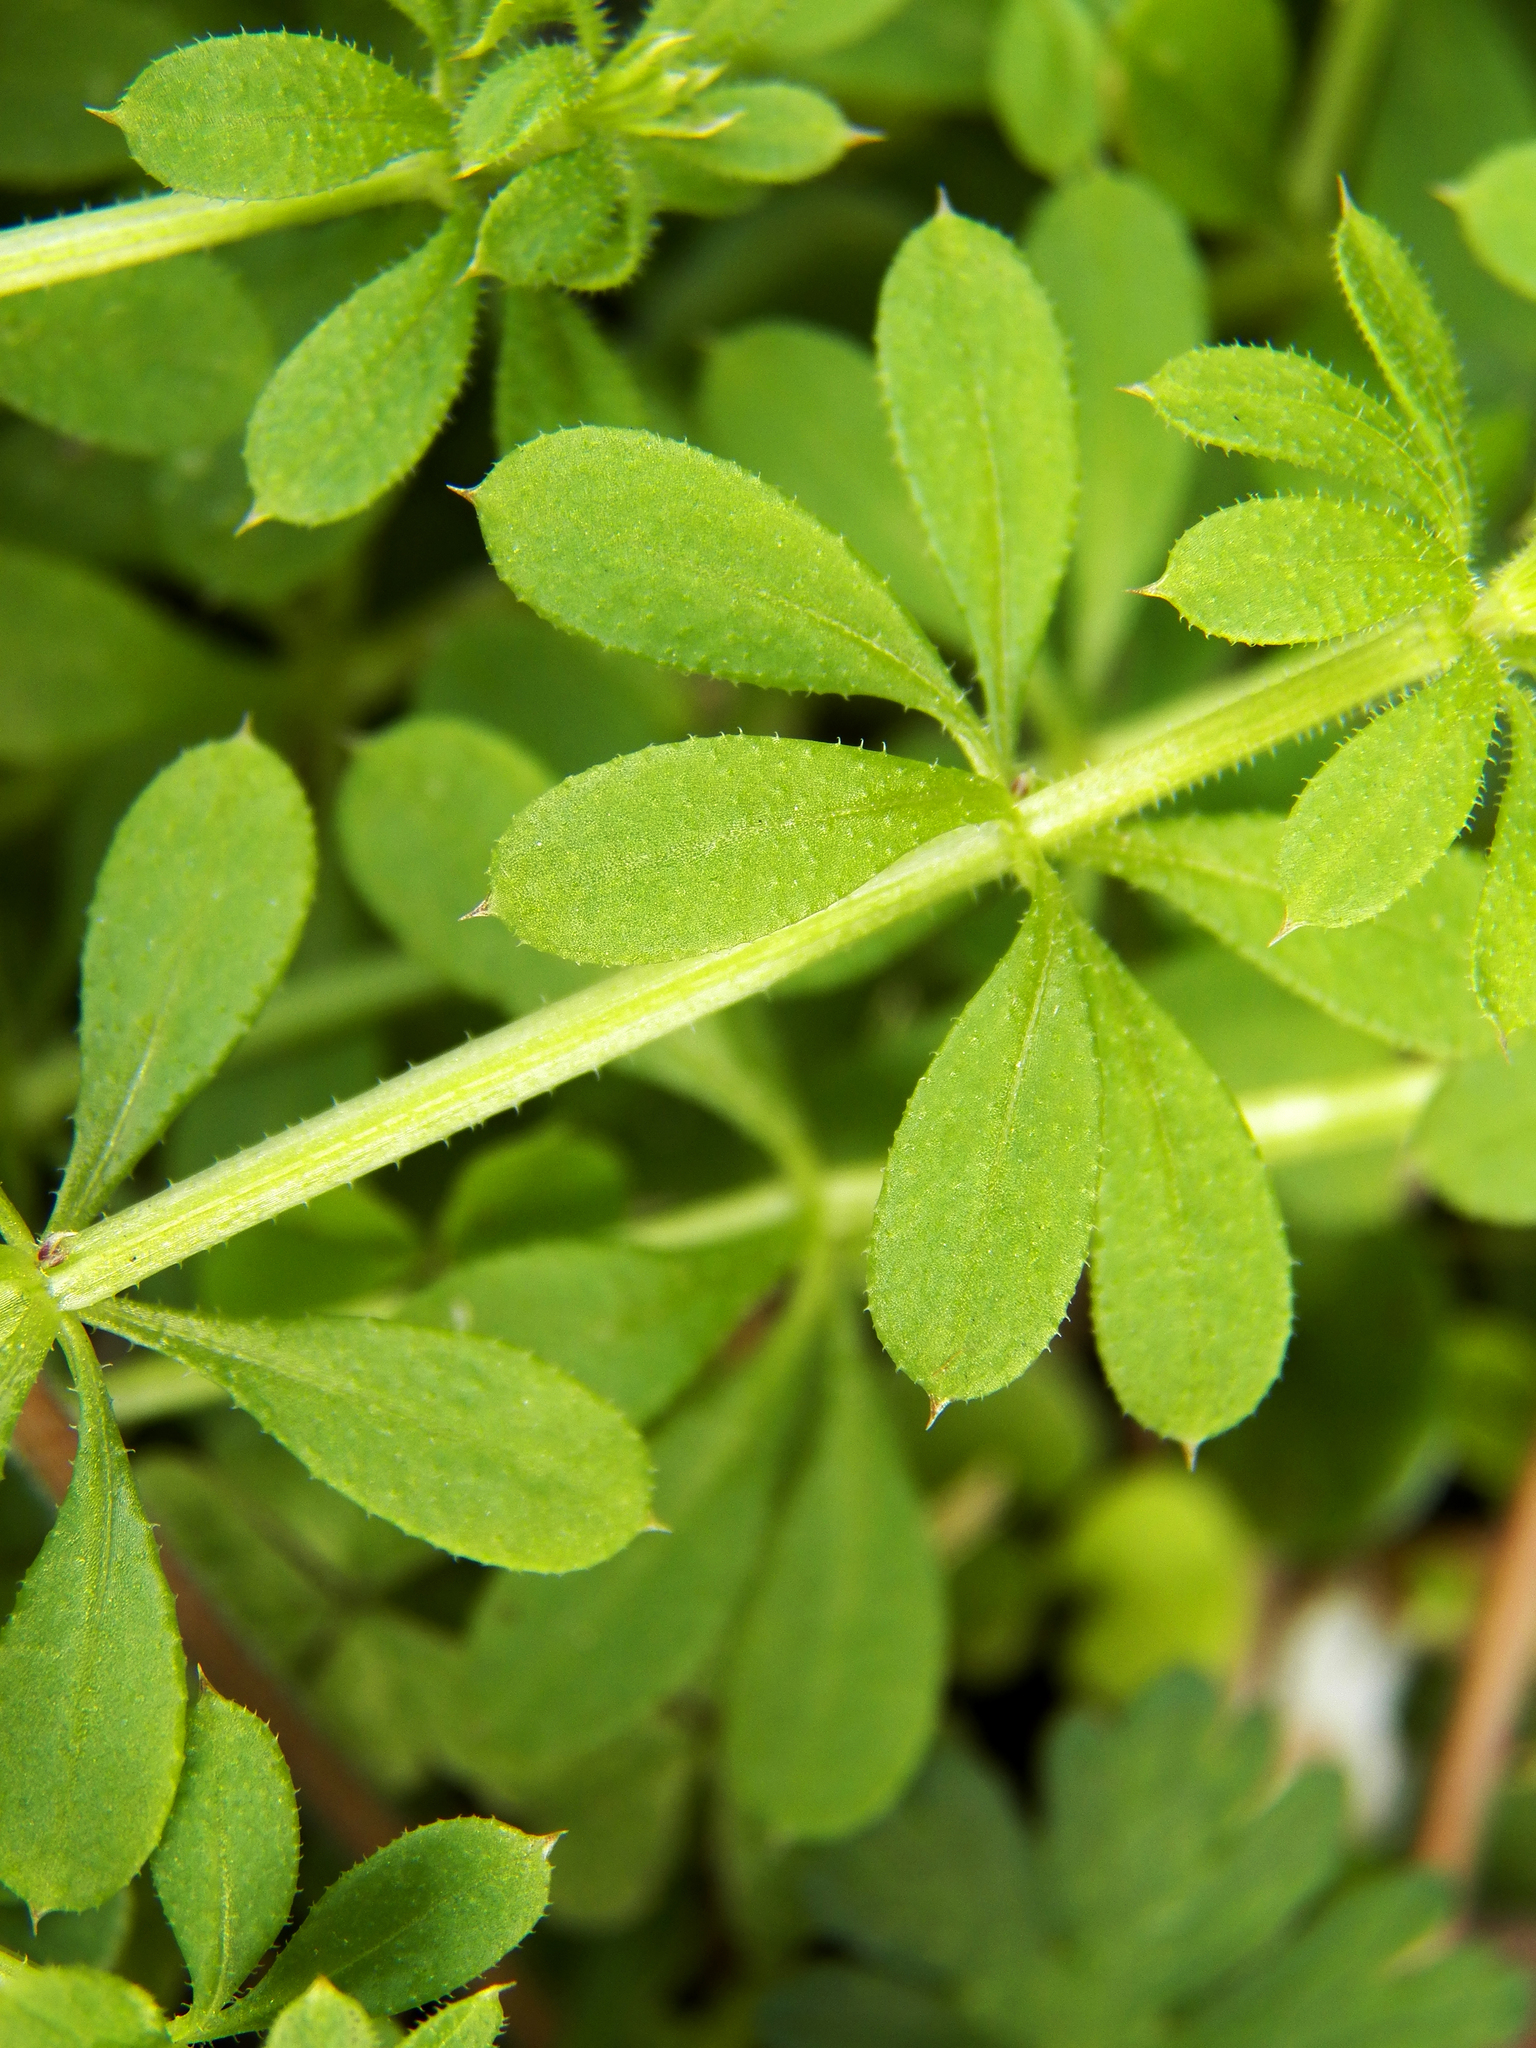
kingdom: Plantae
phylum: Tracheophyta
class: Magnoliopsida
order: Gentianales
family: Rubiaceae
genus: Galium
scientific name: Galium aparine
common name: Cleavers
